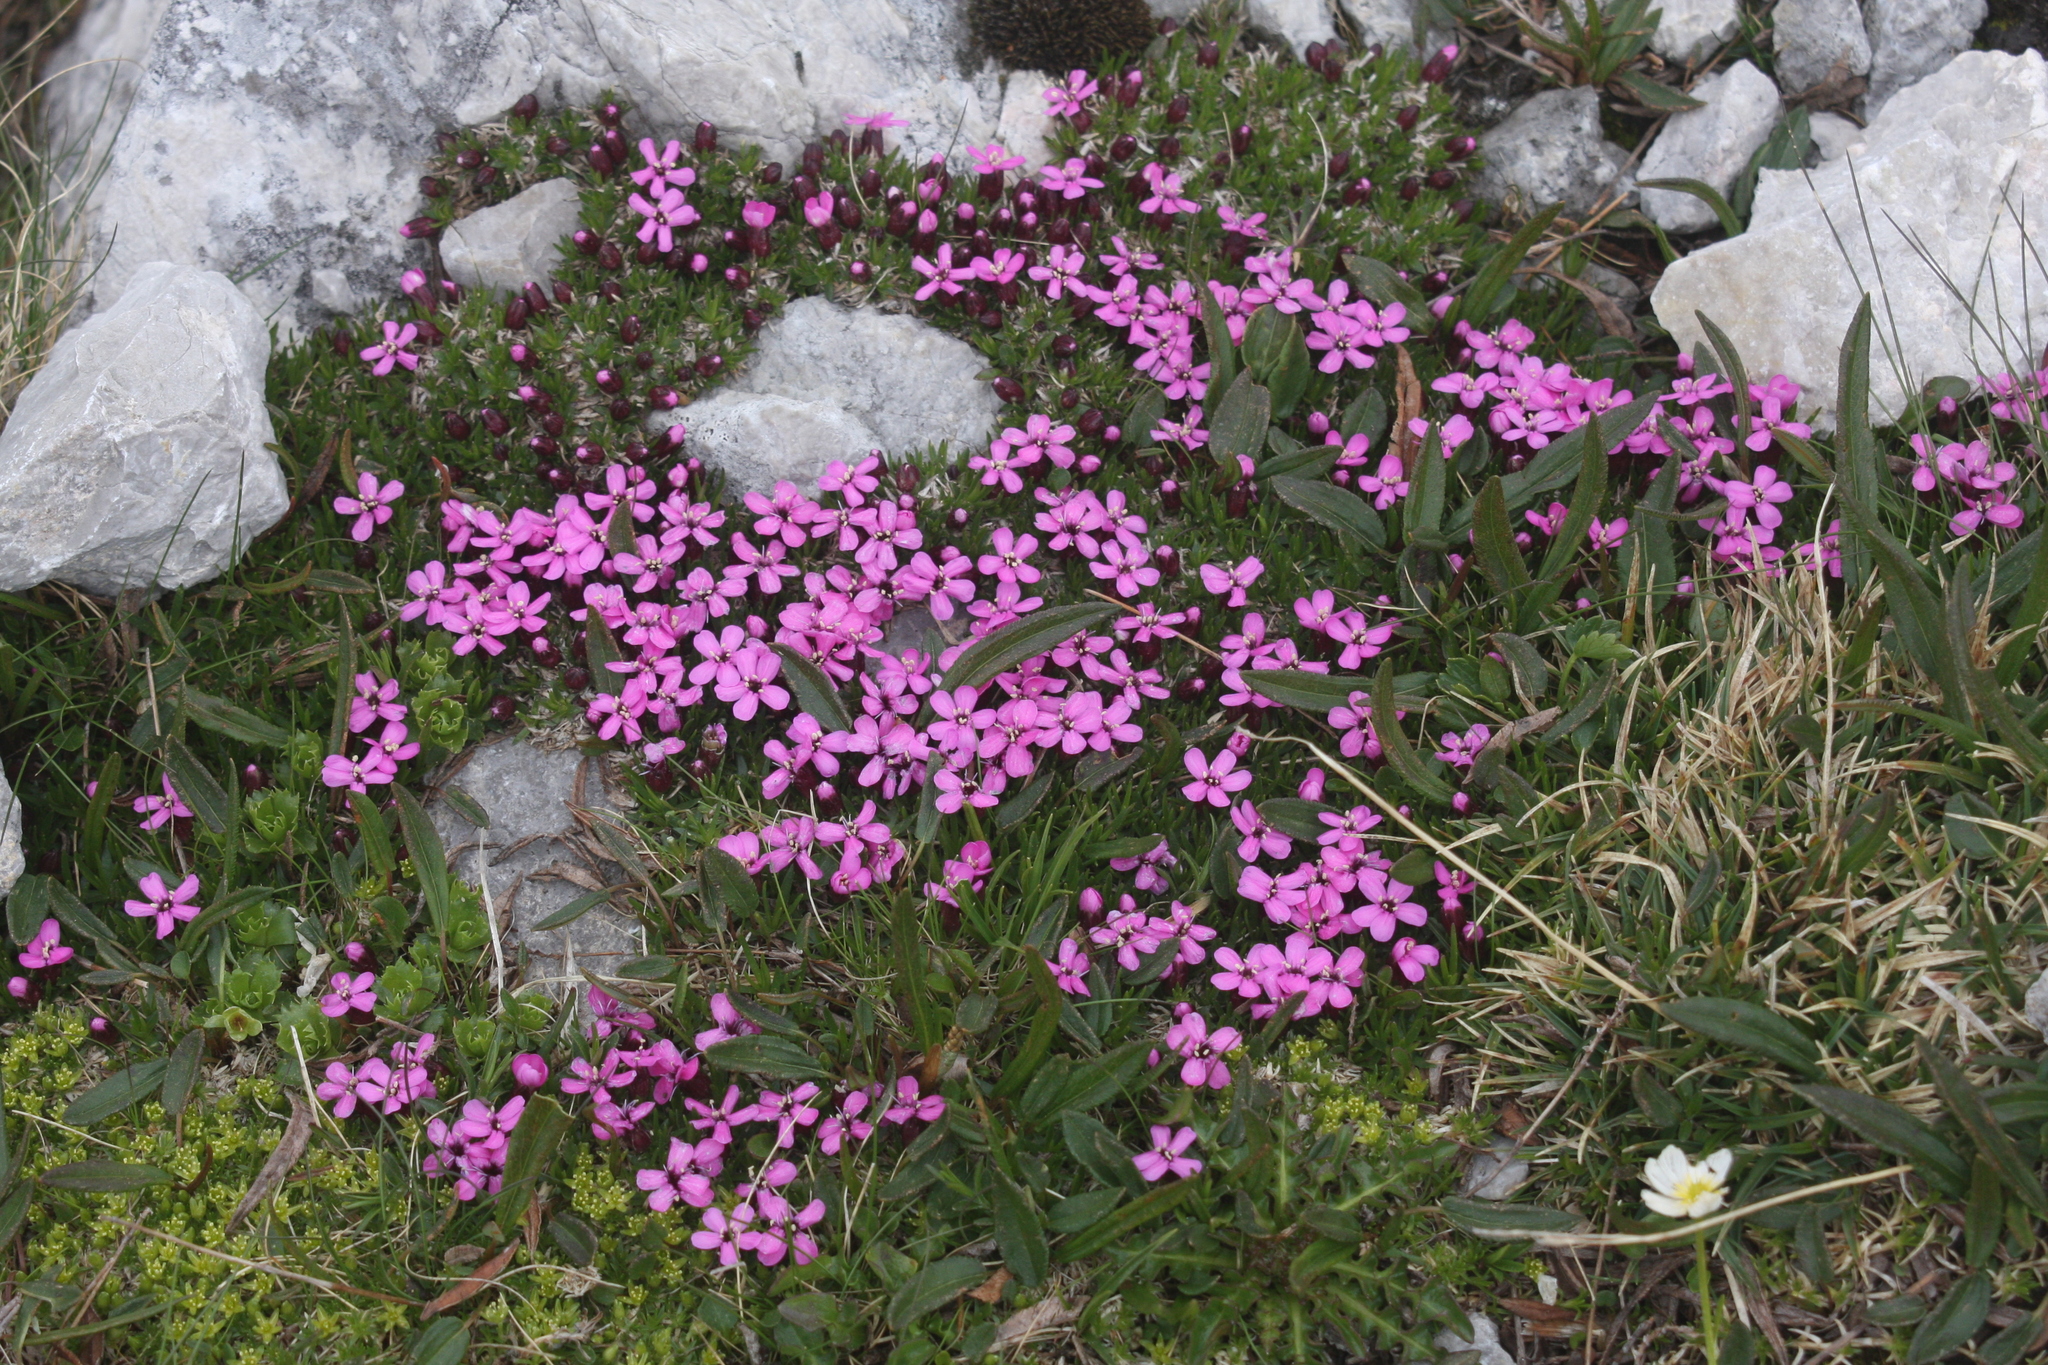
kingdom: Plantae
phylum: Tracheophyta
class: Magnoliopsida
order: Caryophyllales
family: Caryophyllaceae
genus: Silene
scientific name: Silene acaulis
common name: Moss campion
